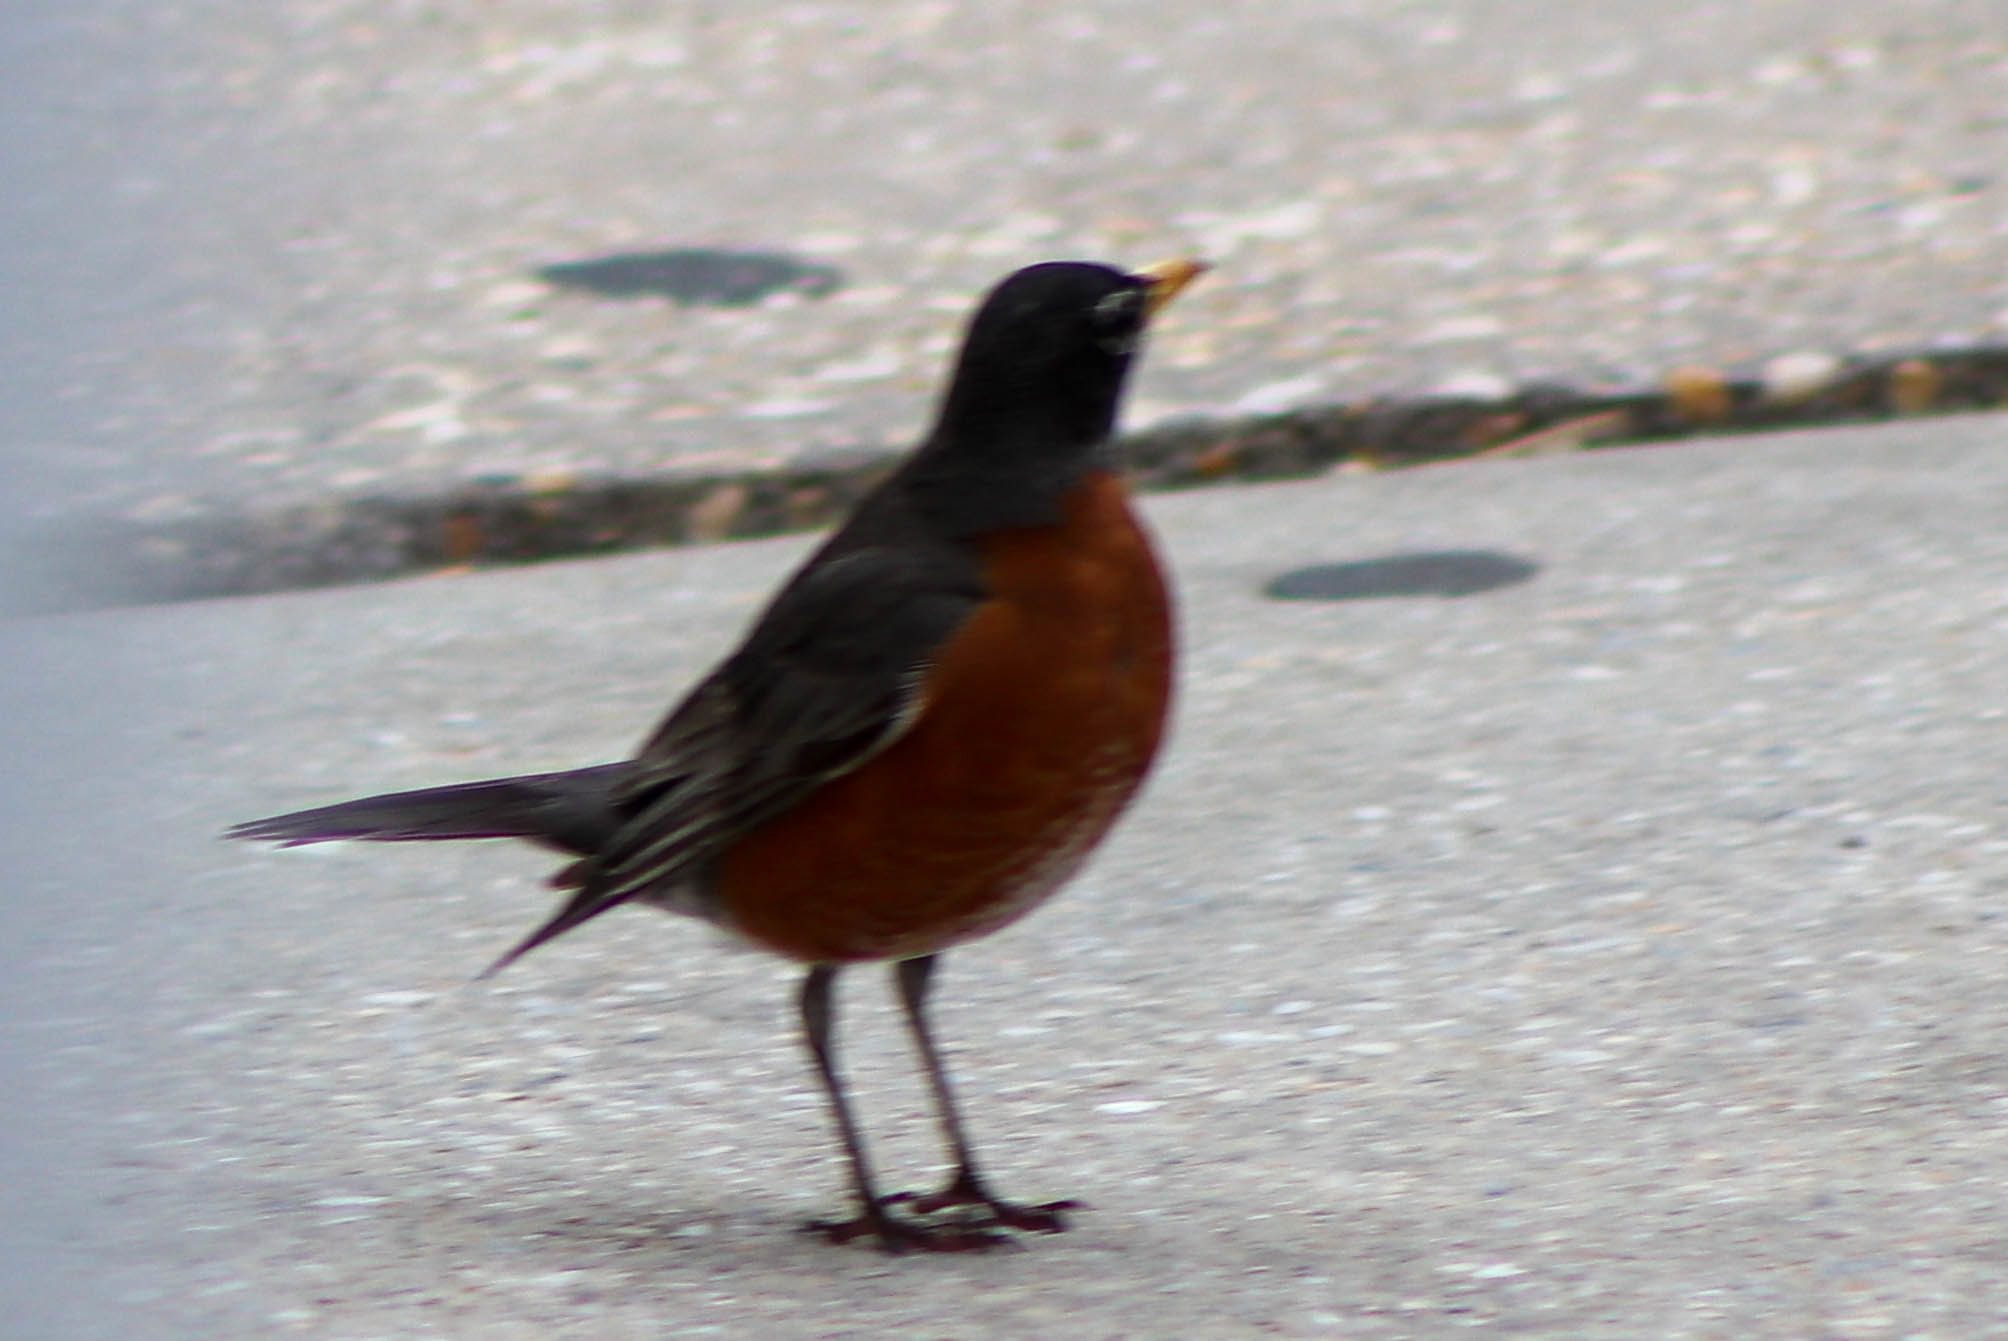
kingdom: Animalia
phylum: Chordata
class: Aves
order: Passeriformes
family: Turdidae
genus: Turdus
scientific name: Turdus migratorius
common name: American robin
